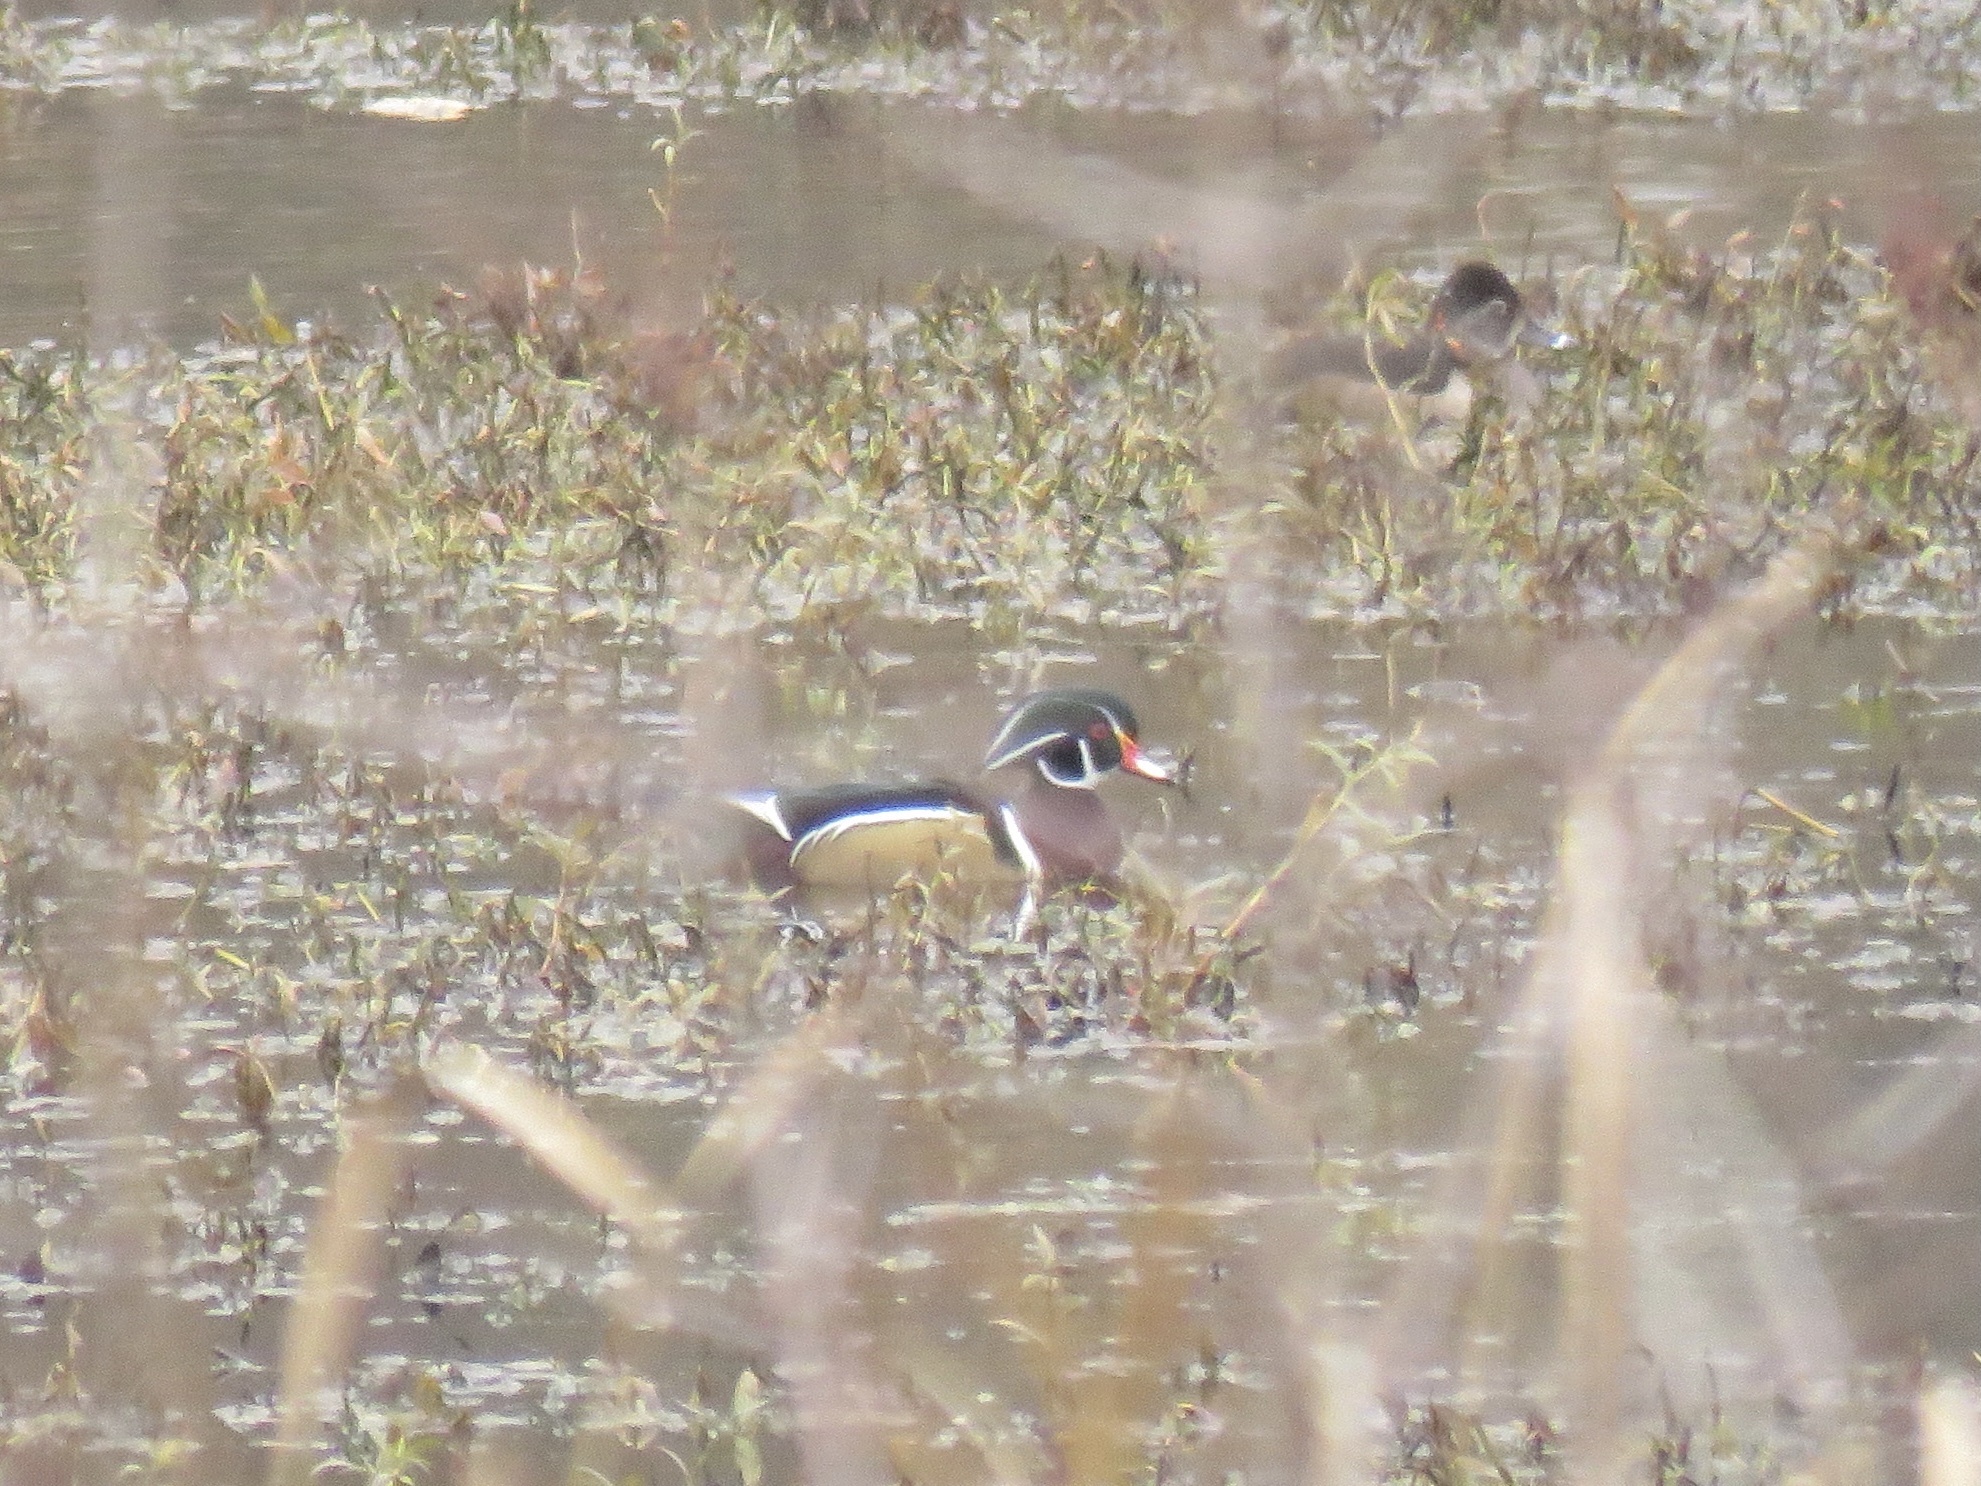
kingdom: Animalia
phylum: Chordata
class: Aves
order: Anseriformes
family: Anatidae
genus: Aix
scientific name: Aix sponsa
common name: Wood duck
